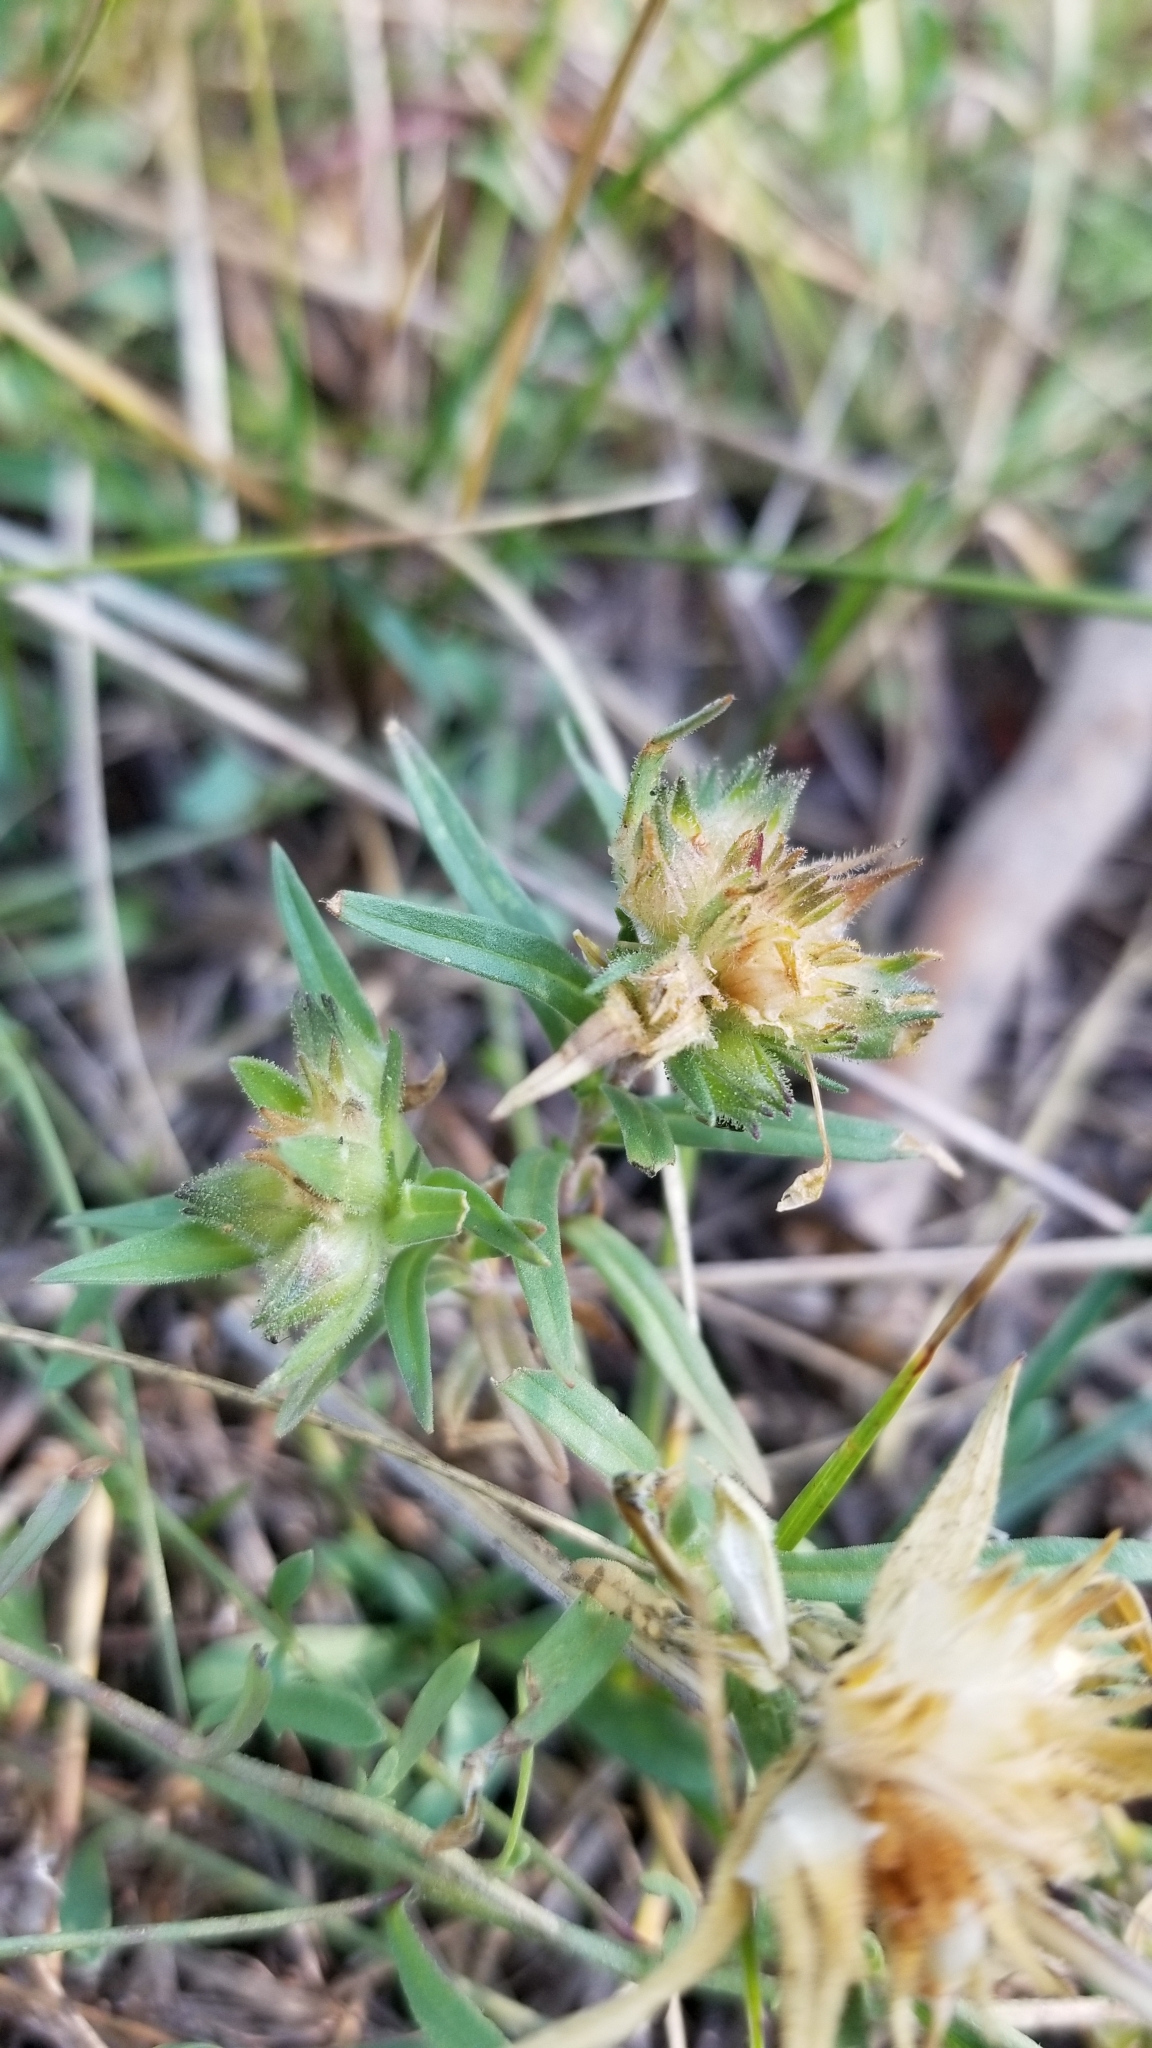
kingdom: Plantae
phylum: Tracheophyta
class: Magnoliopsida
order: Ericales
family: Polemoniaceae
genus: Collomia
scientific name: Collomia linearis
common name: Tiny trumpet
